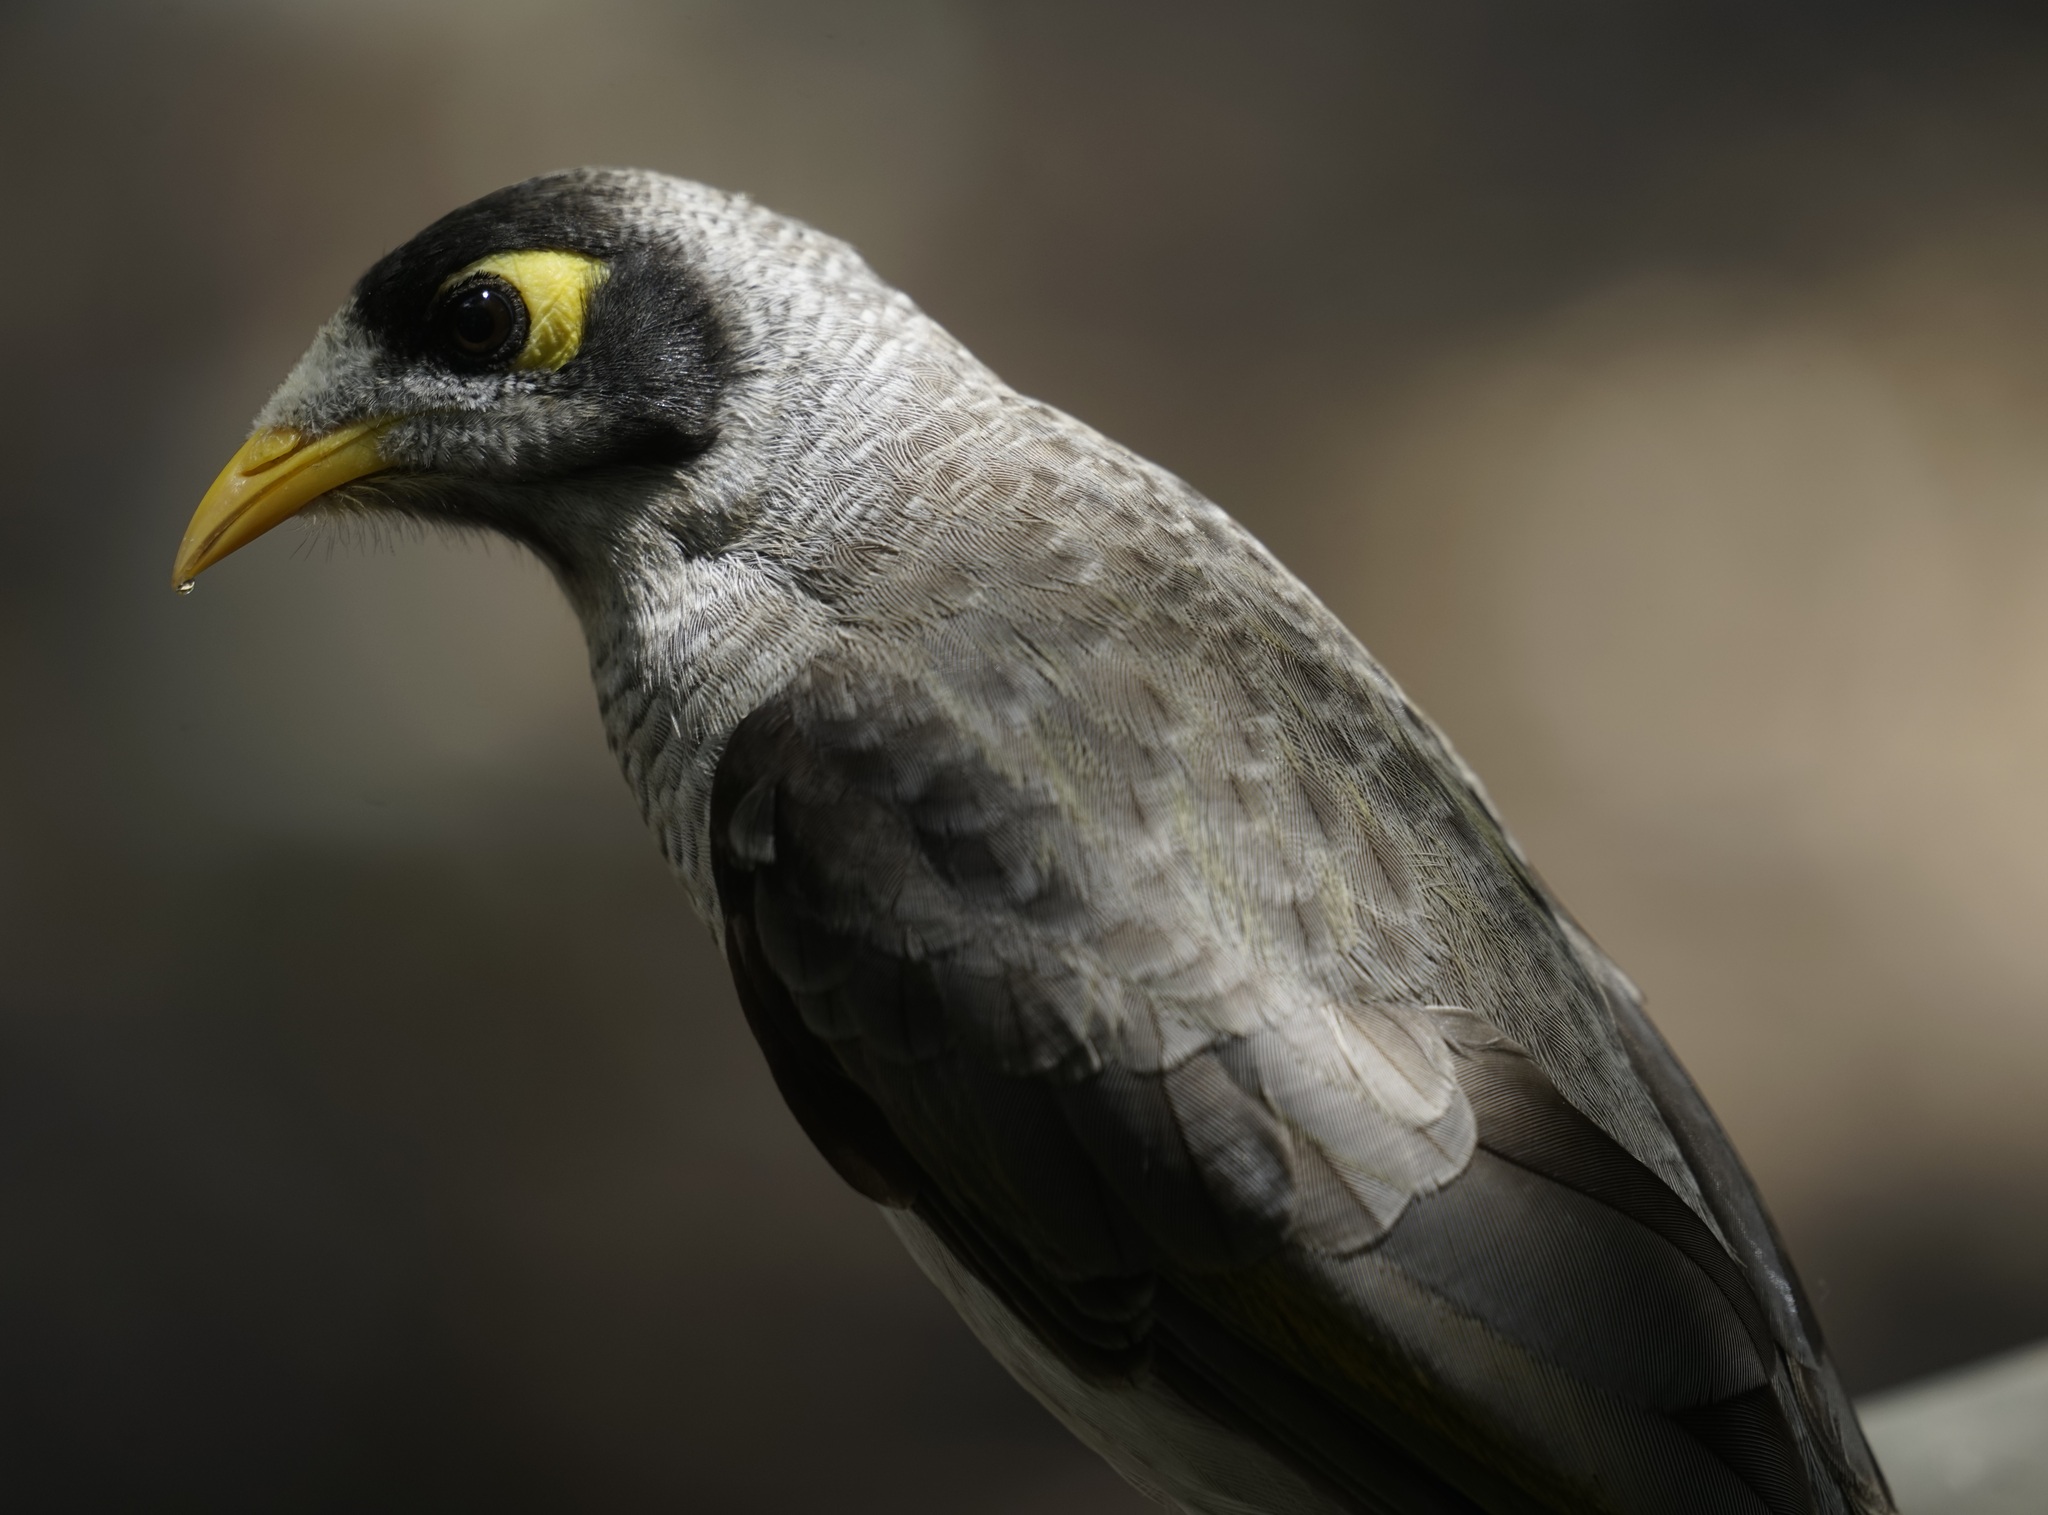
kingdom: Animalia
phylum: Chordata
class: Aves
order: Passeriformes
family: Meliphagidae
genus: Manorina
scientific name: Manorina melanocephala
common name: Noisy miner
